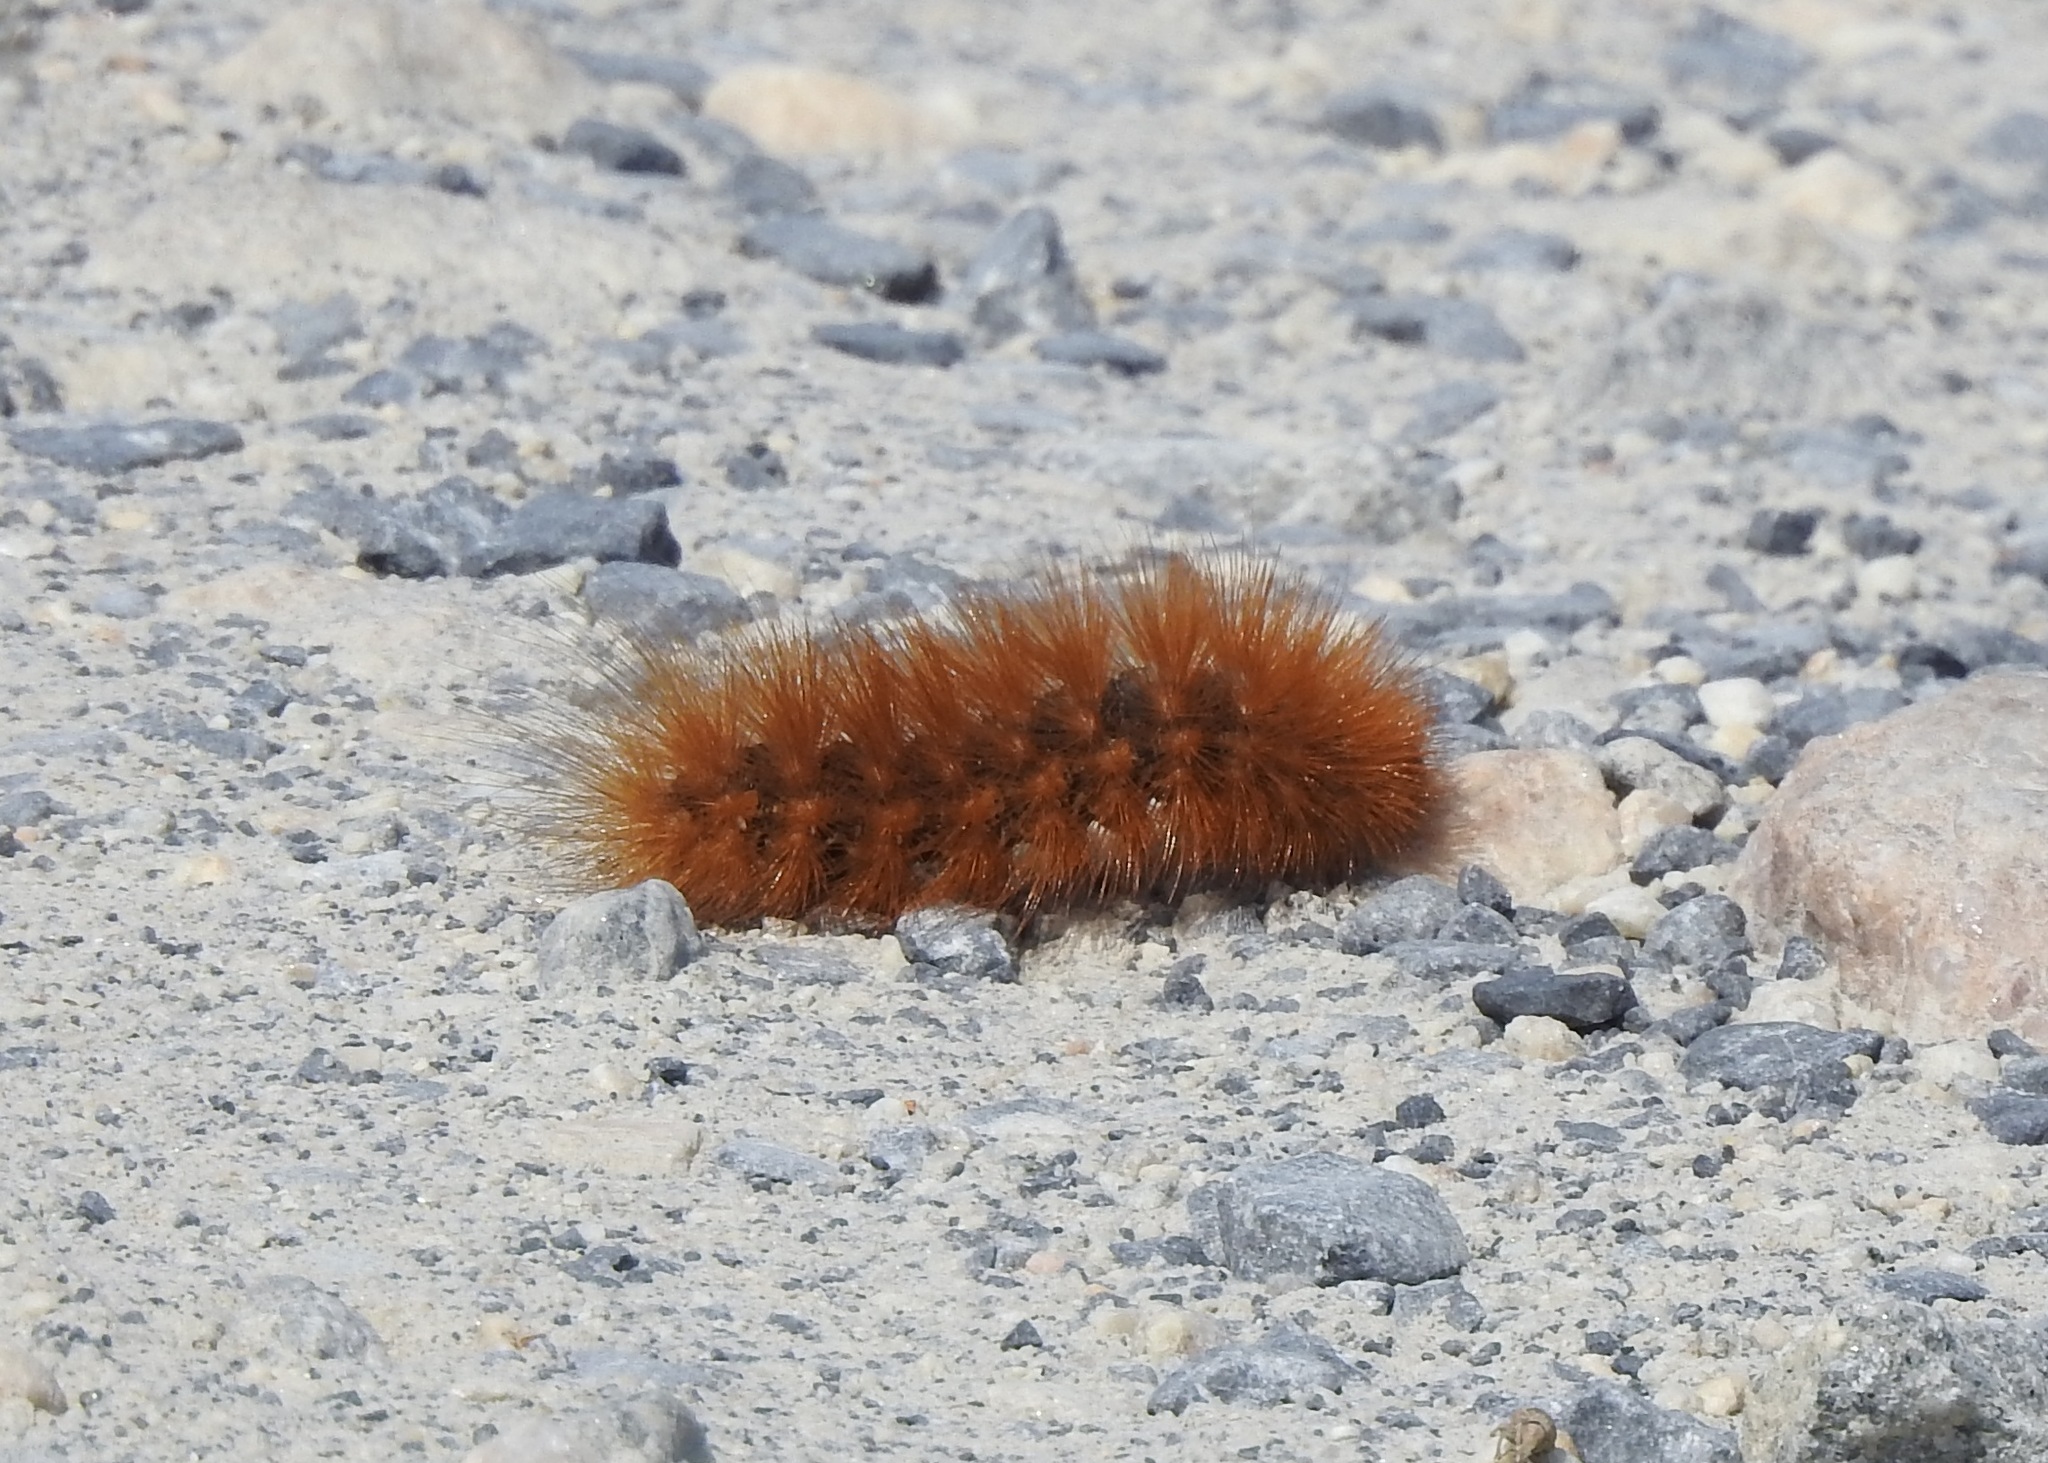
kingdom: Animalia
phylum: Arthropoda
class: Insecta
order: Lepidoptera
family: Erebidae
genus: Estigmene
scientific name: Estigmene acrea
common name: Salt marsh moth
